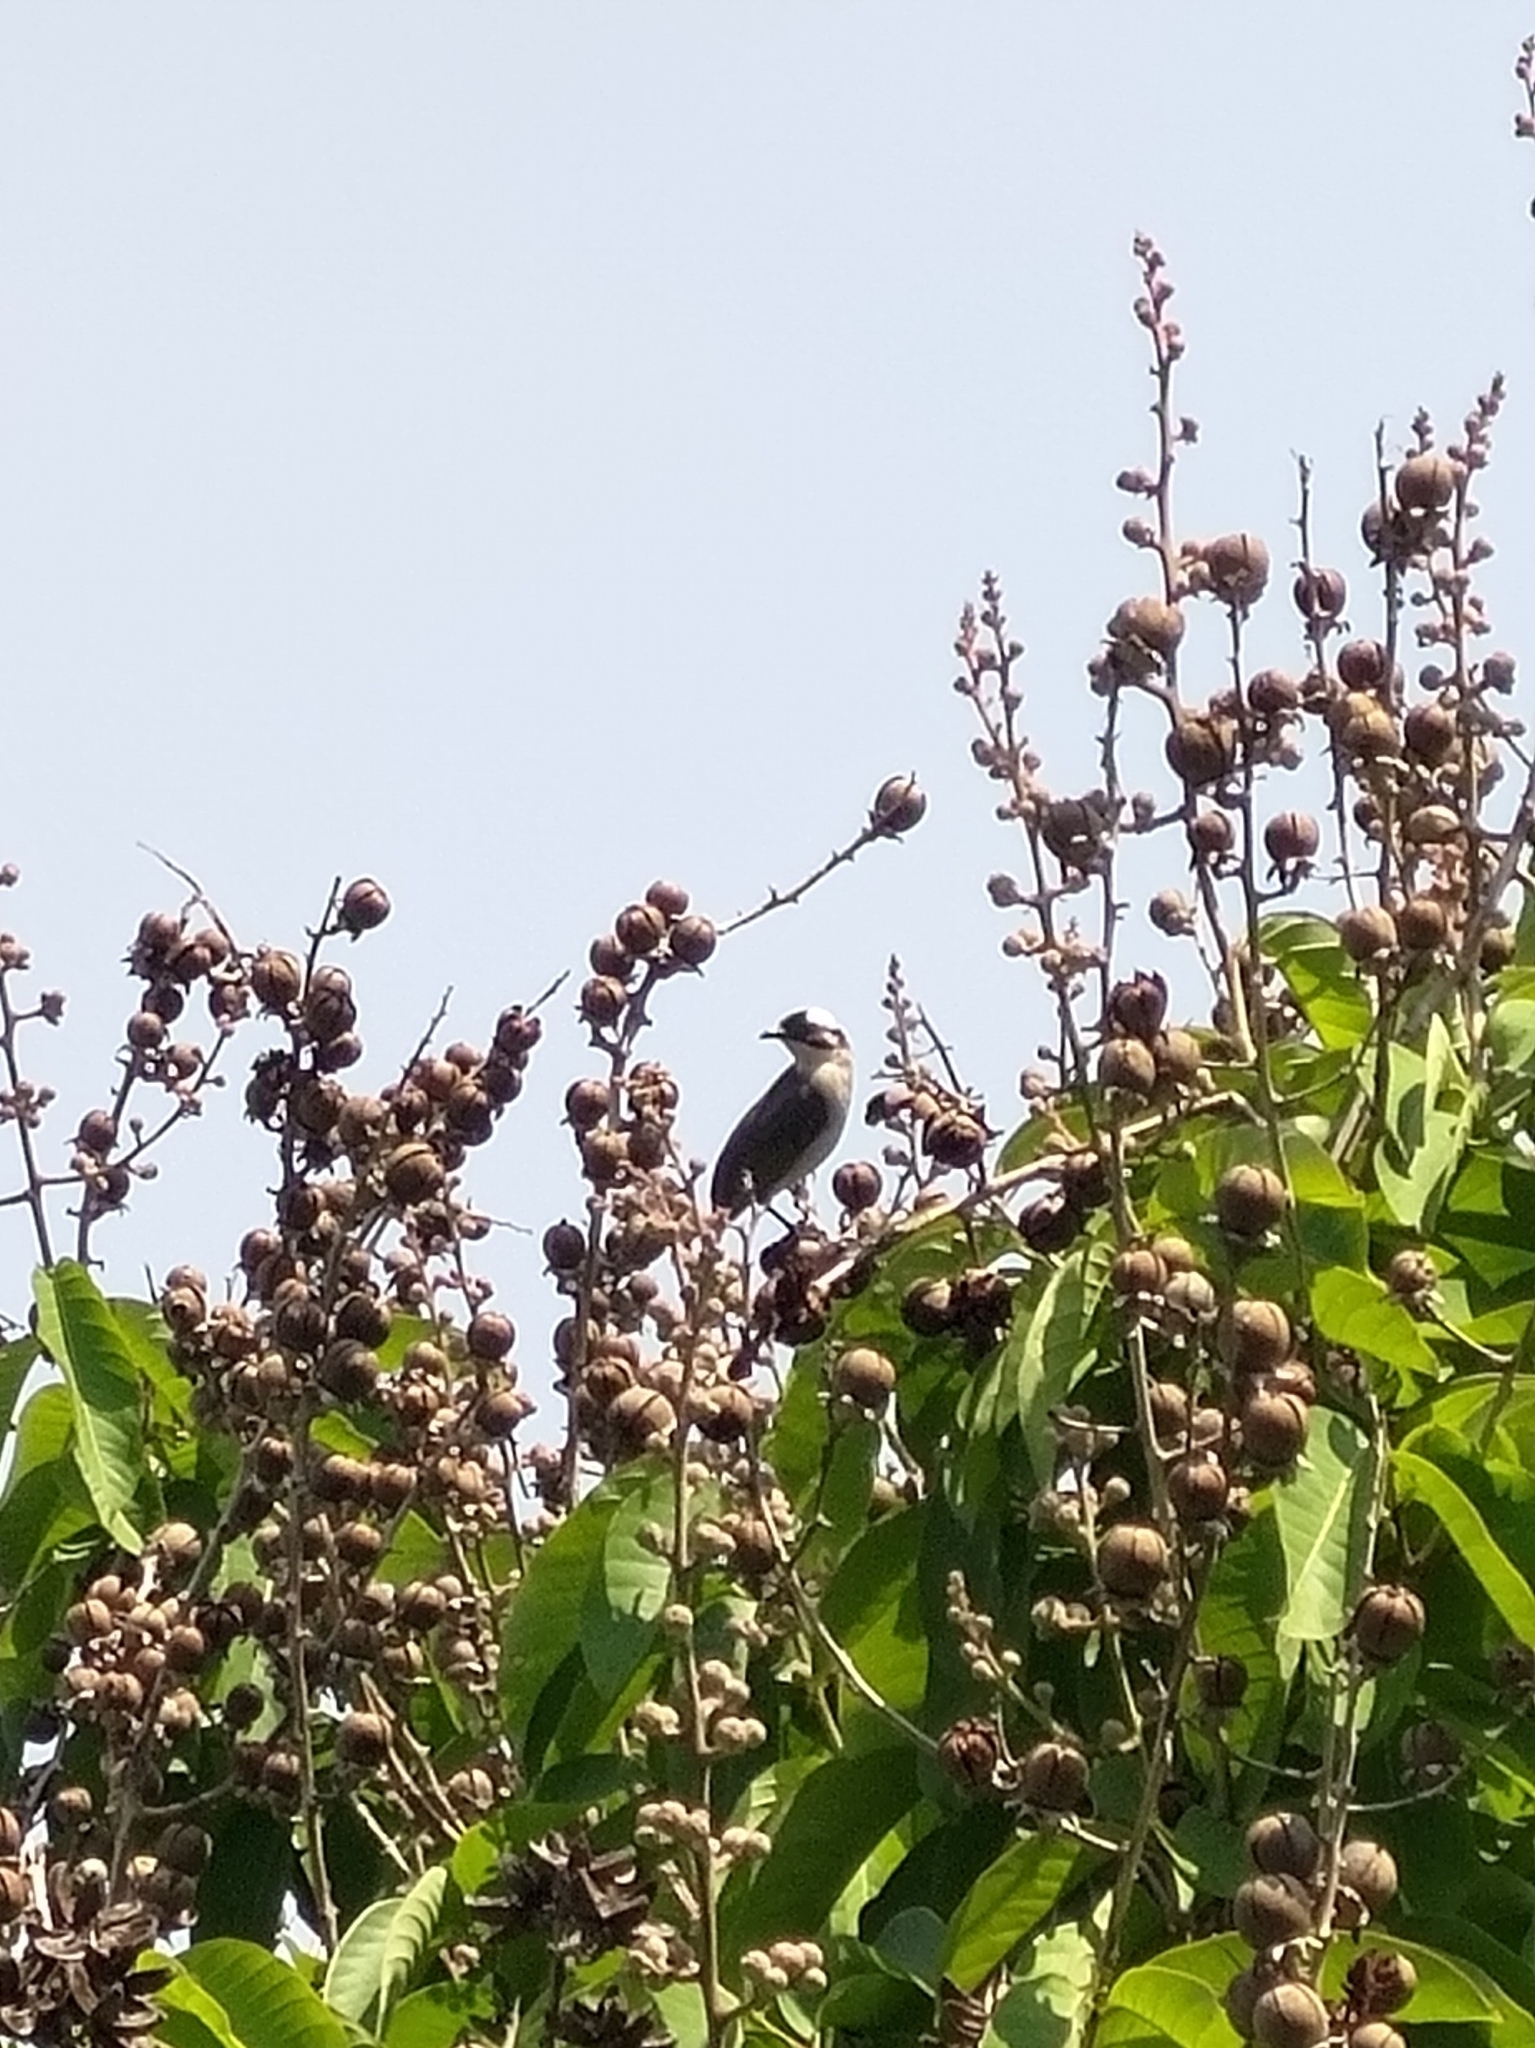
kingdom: Animalia
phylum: Chordata
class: Aves
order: Passeriformes
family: Pycnonotidae
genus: Pycnonotus
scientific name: Pycnonotus sinensis
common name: Light-vented bulbul
